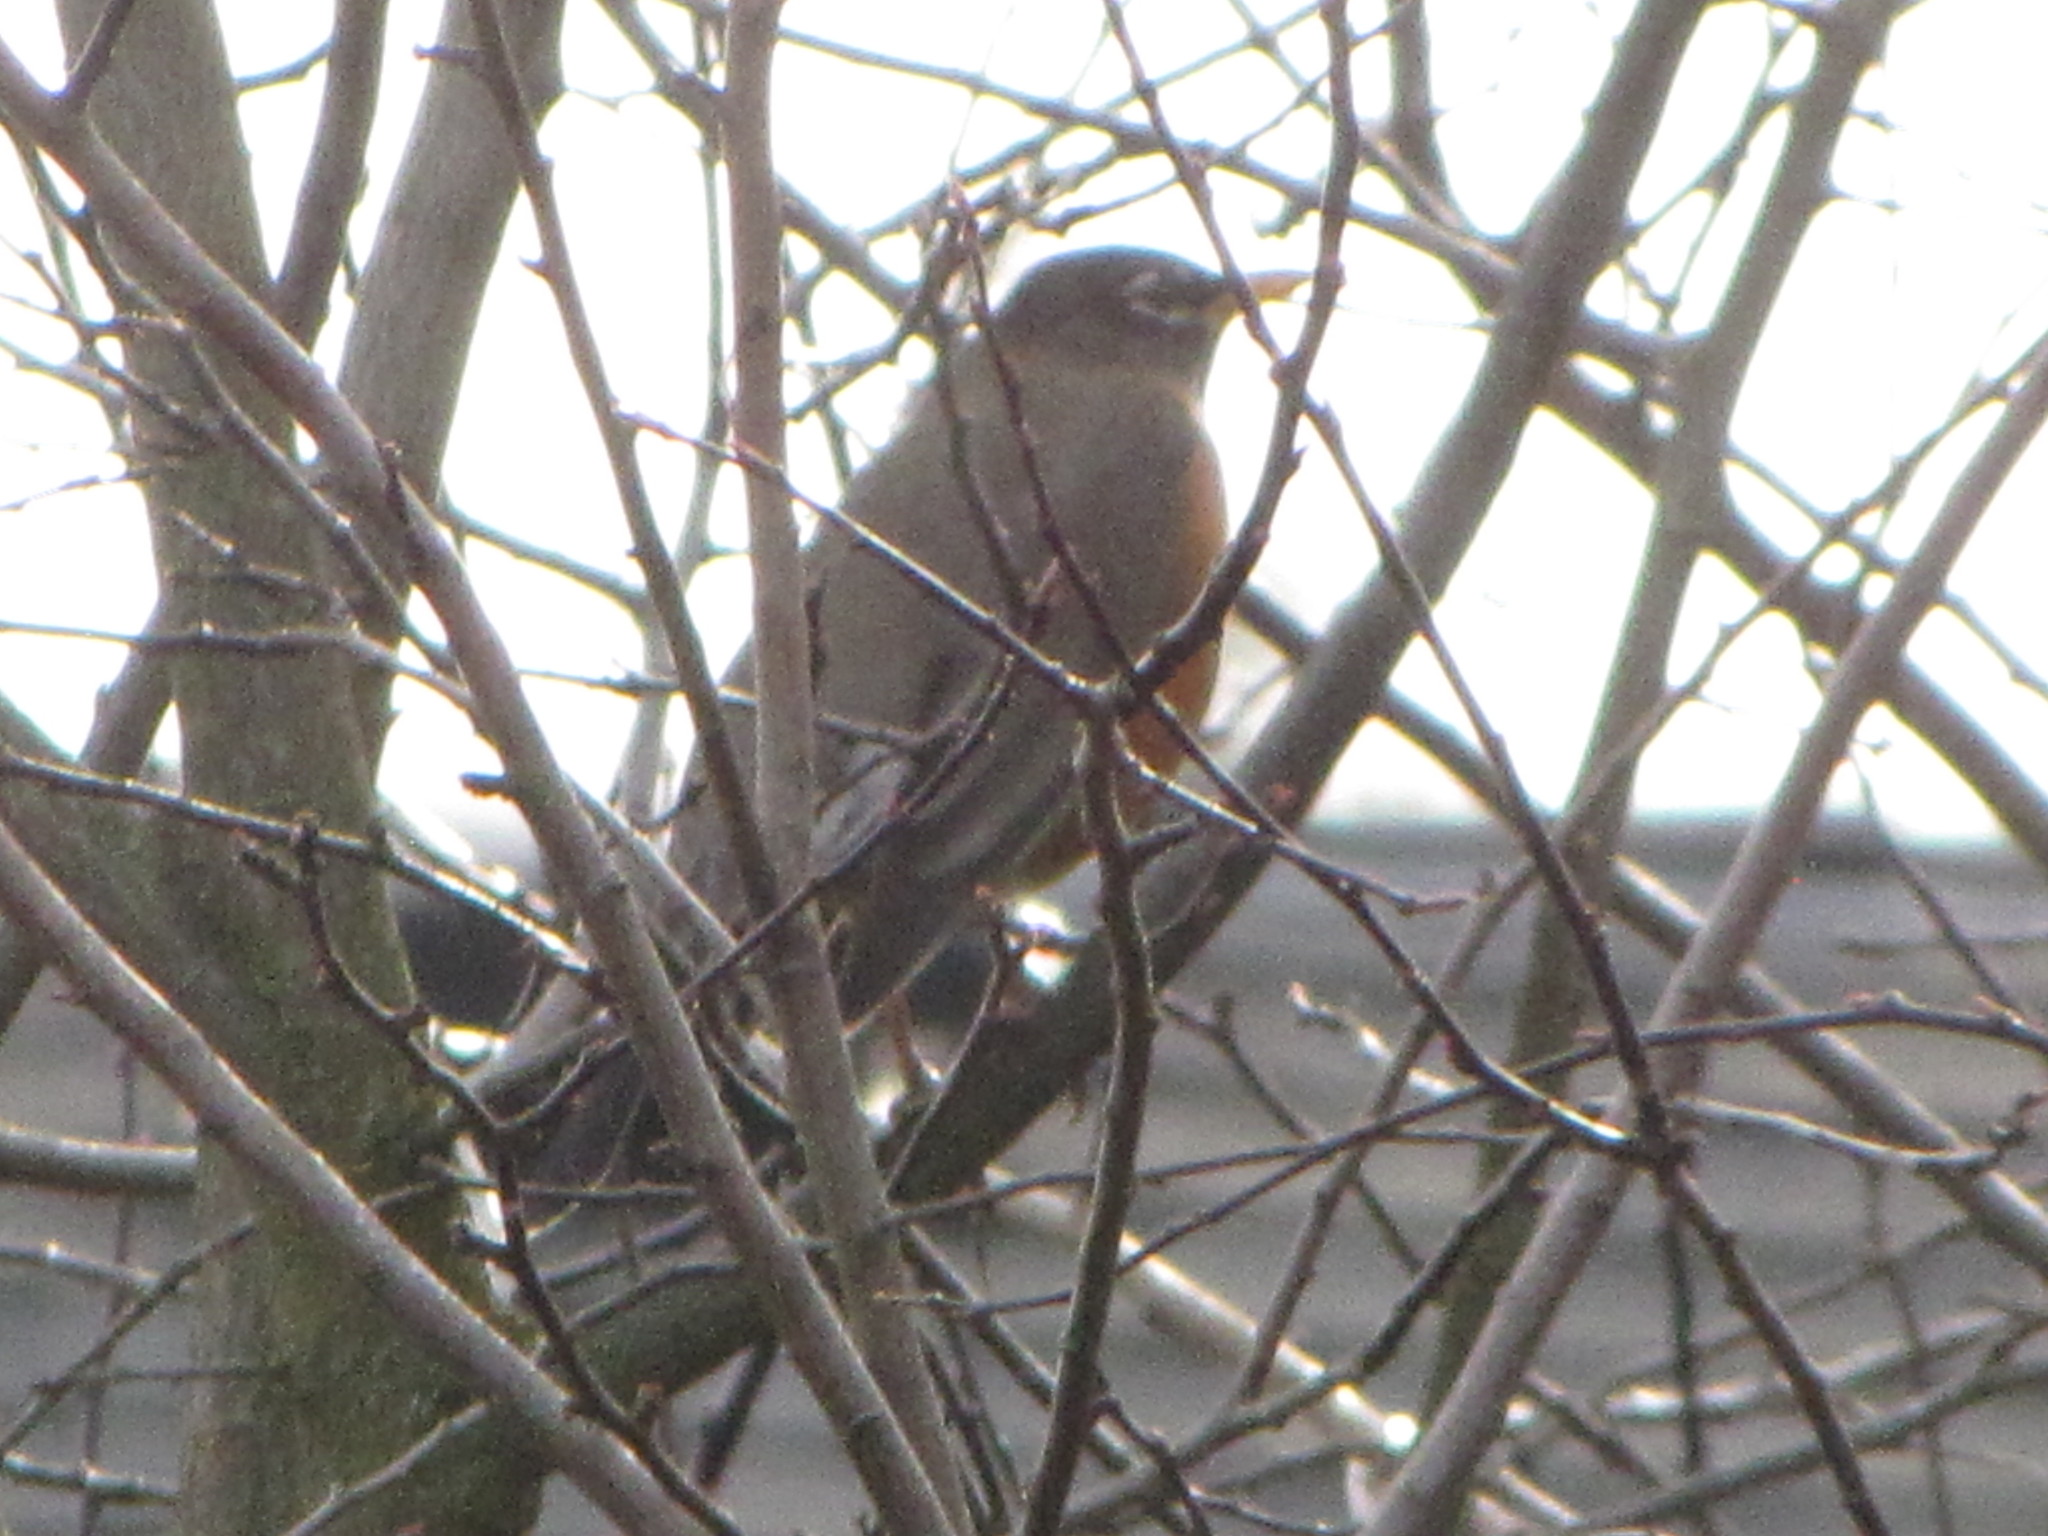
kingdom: Animalia
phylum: Chordata
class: Aves
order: Passeriformes
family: Turdidae
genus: Turdus
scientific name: Turdus migratorius
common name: American robin
